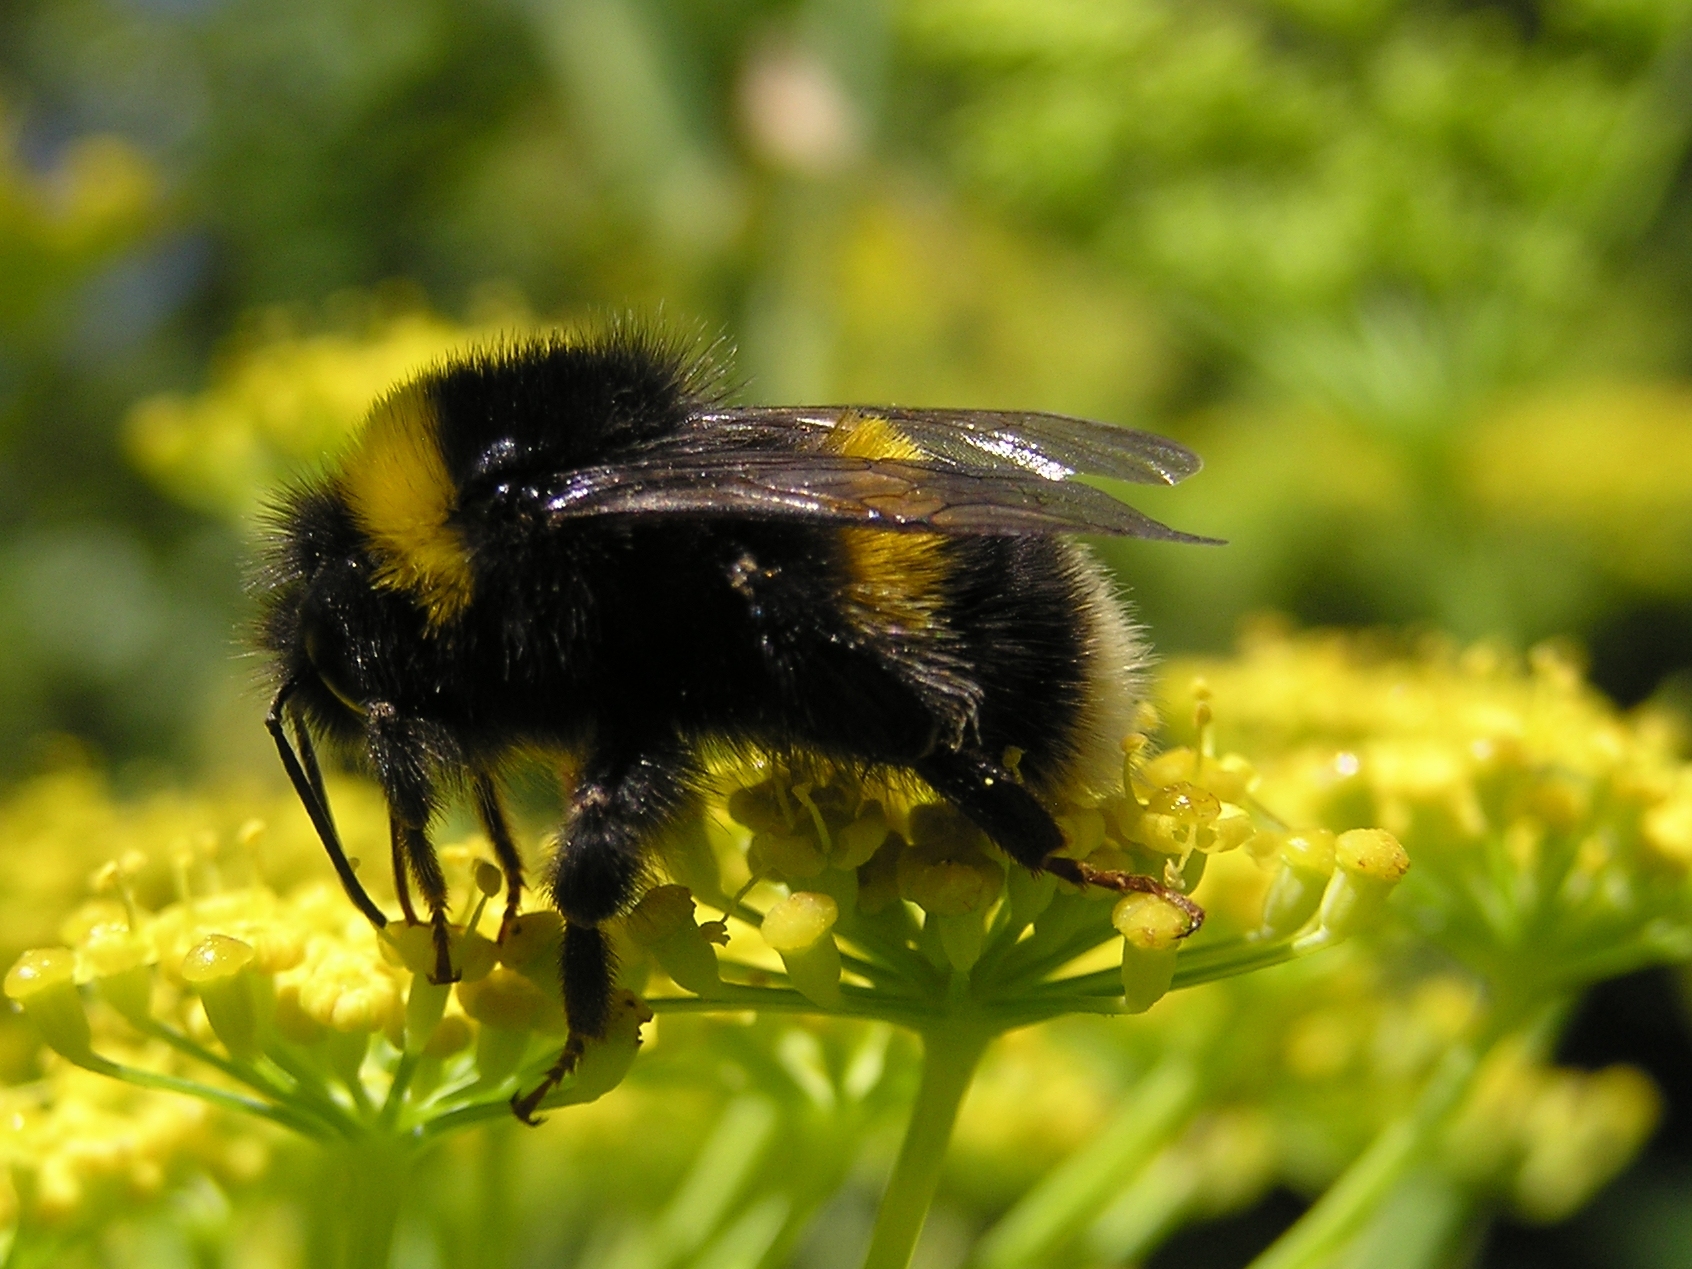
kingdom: Animalia
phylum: Arthropoda
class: Insecta
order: Hymenoptera
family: Apidae
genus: Bombus
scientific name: Bombus terrestris
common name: Buff-tailed bumblebee
